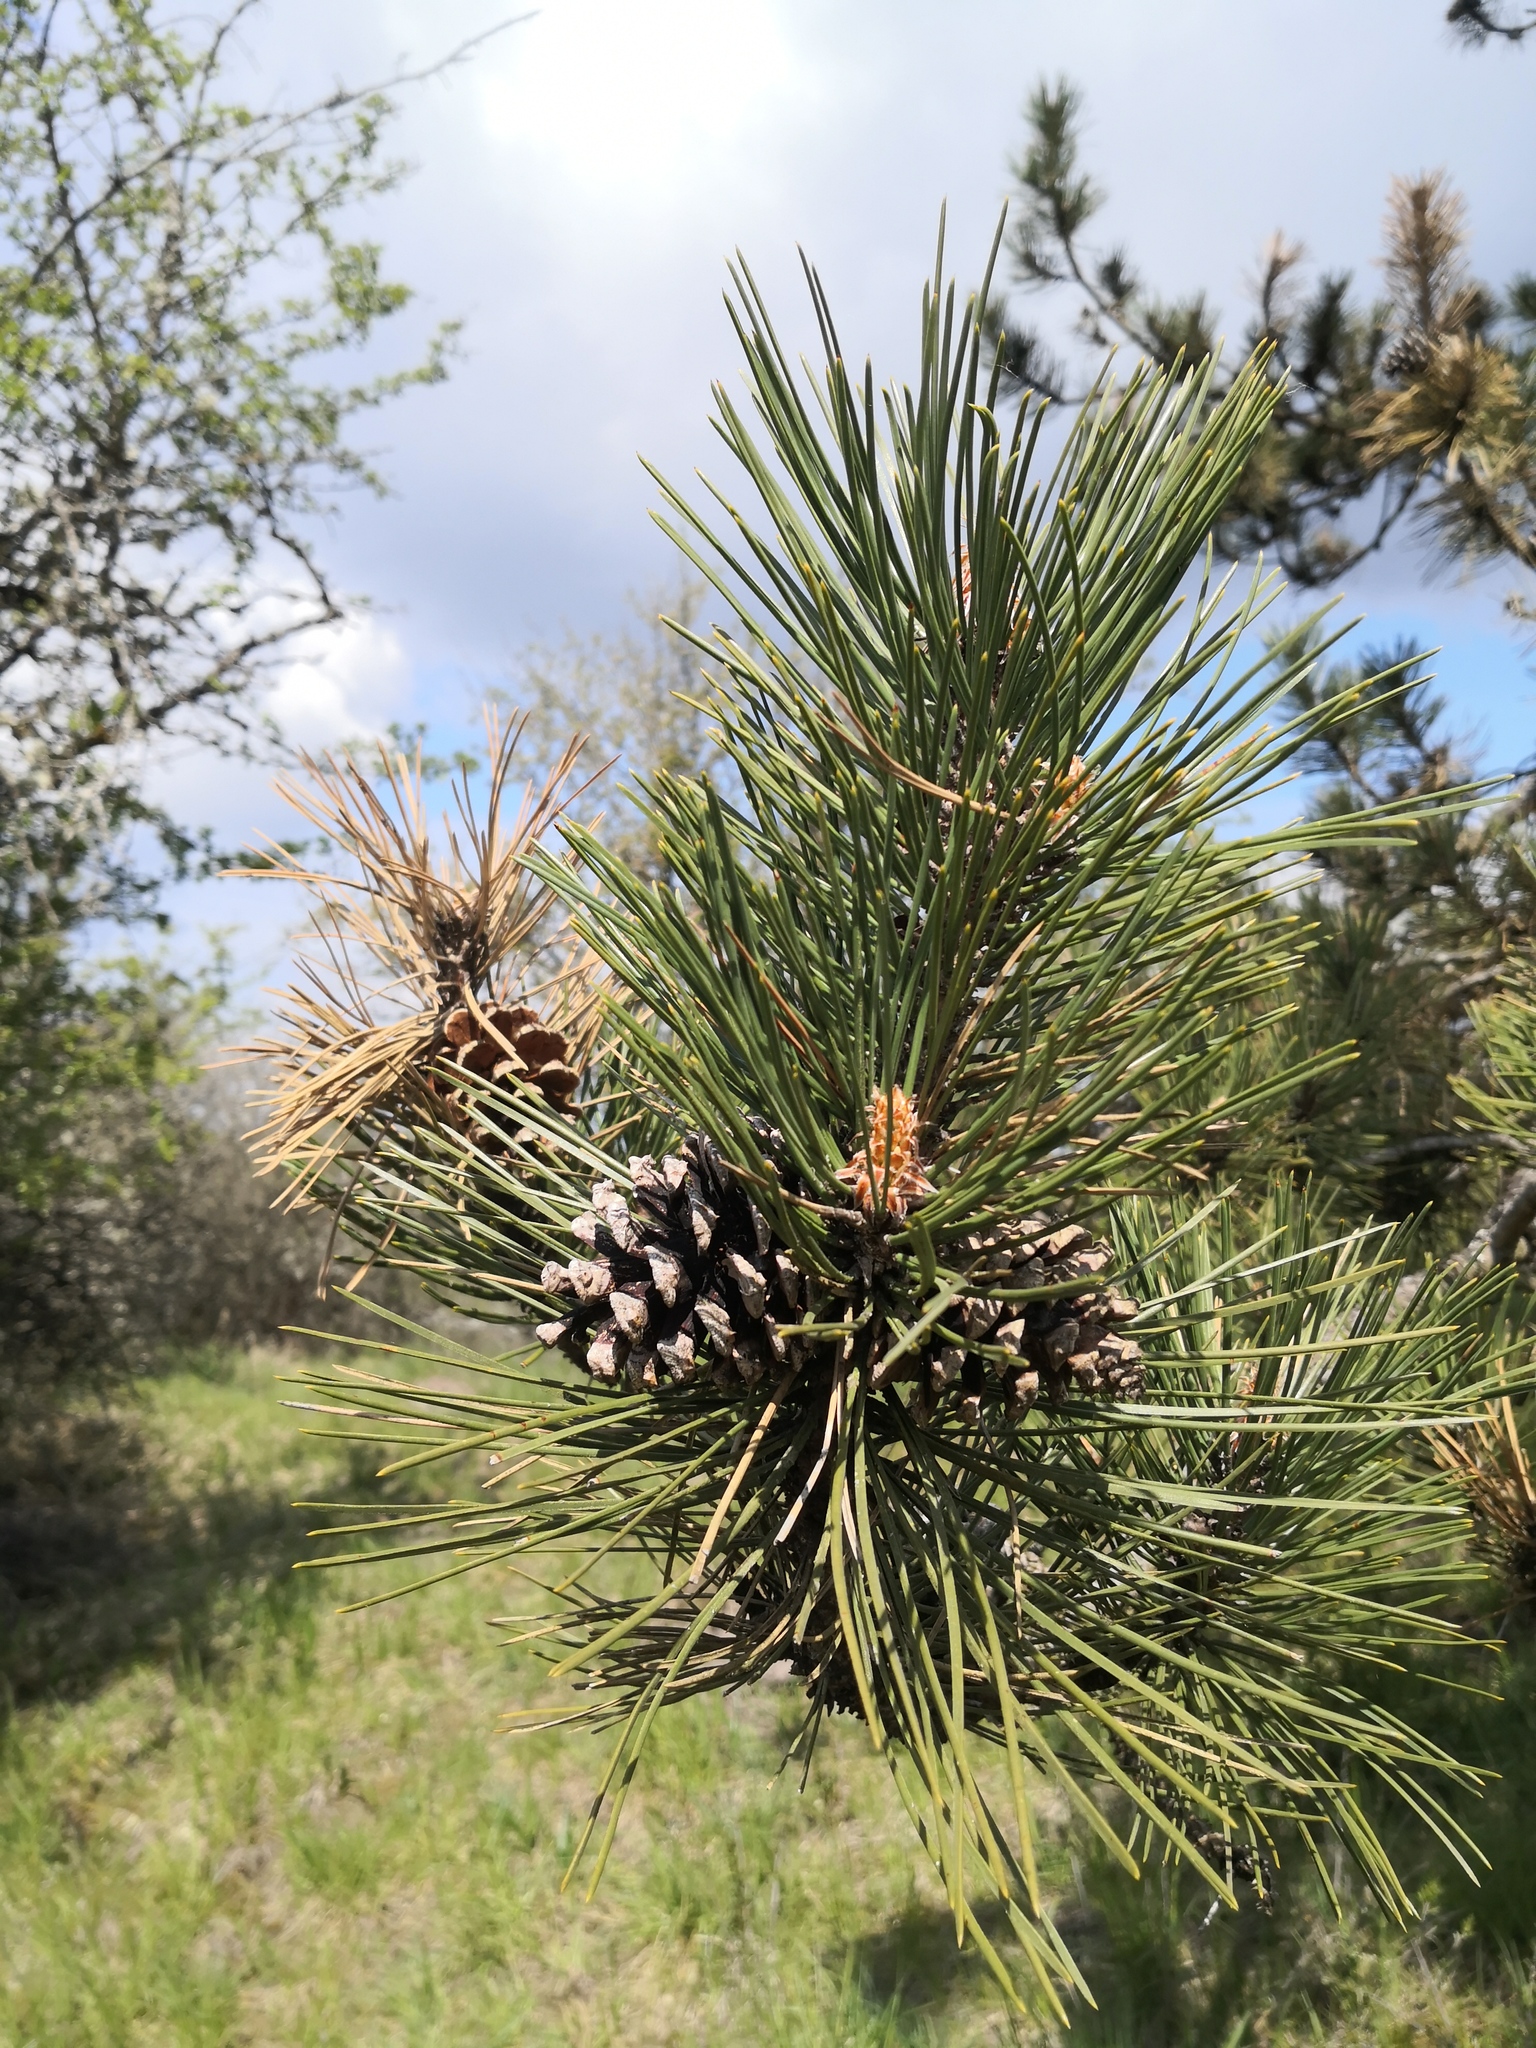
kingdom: Plantae
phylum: Tracheophyta
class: Pinopsida
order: Pinales
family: Pinaceae
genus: Pinus
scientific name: Pinus nigra
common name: Austrian pine
